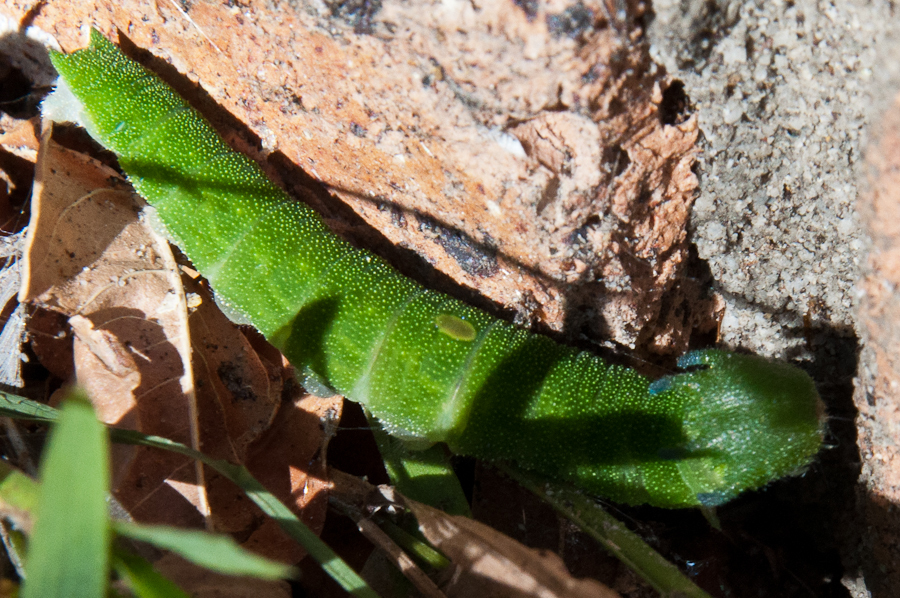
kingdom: Animalia
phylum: Arthropoda
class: Insecta
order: Lepidoptera
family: Nymphalidae
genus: Charaxes
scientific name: Charaxes brutus
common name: White-barred charaxes
